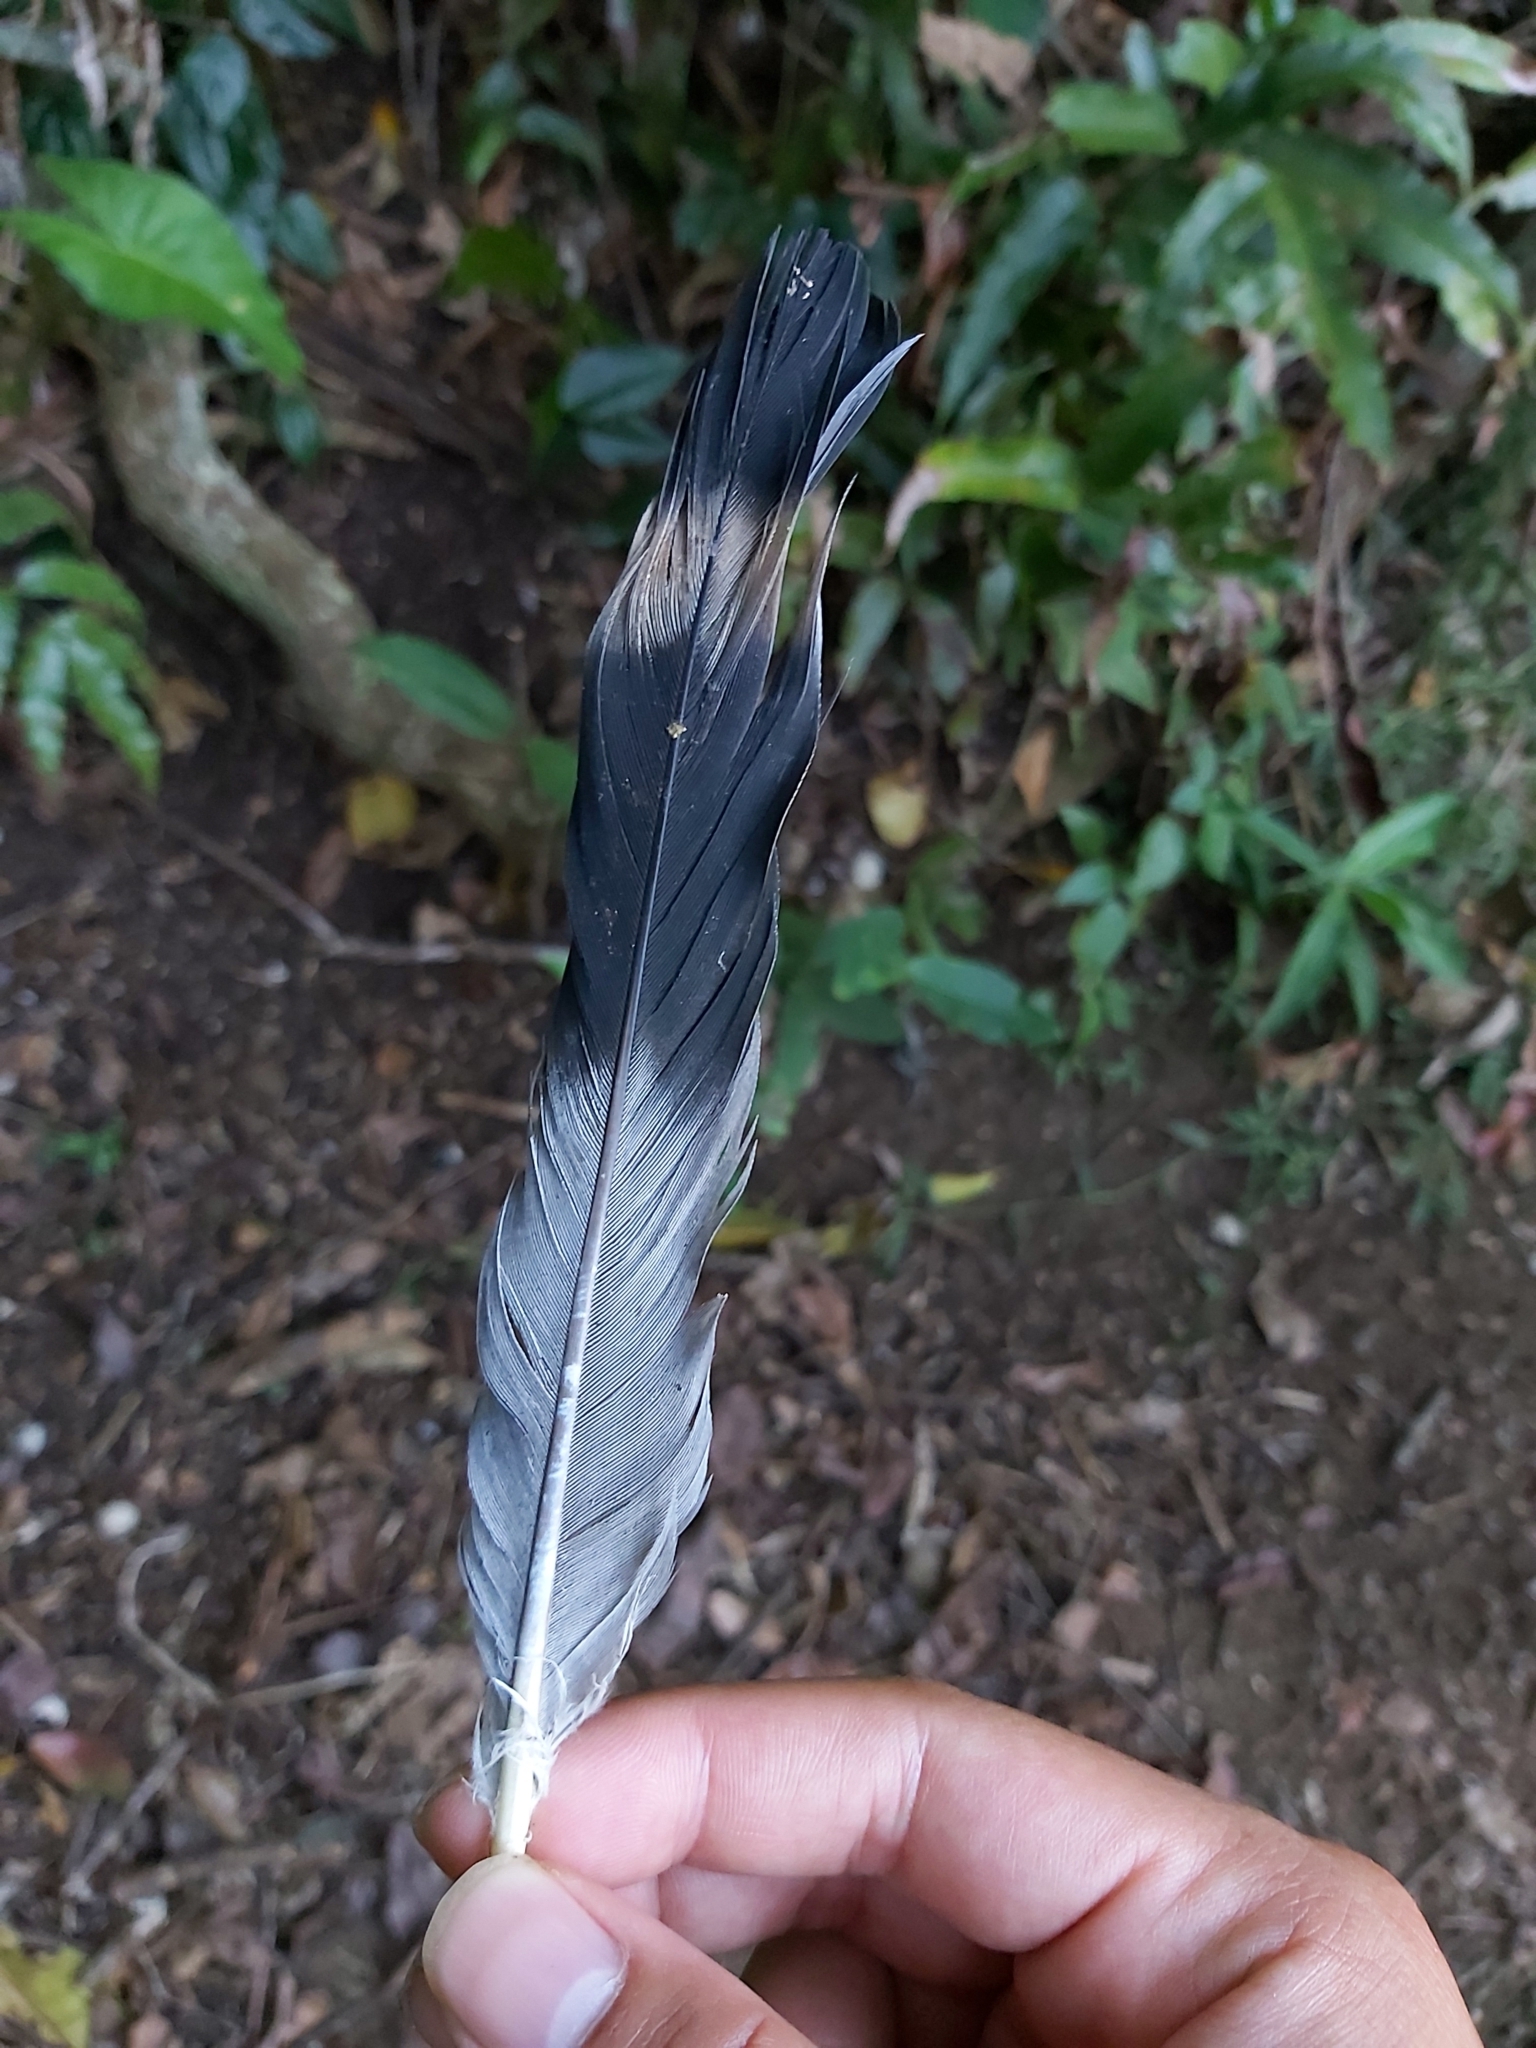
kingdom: Animalia
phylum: Chordata
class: Aves
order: Columbiformes
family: Columbidae
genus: Lopholaimus
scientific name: Lopholaimus antarcticus
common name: Topknot pigeon
